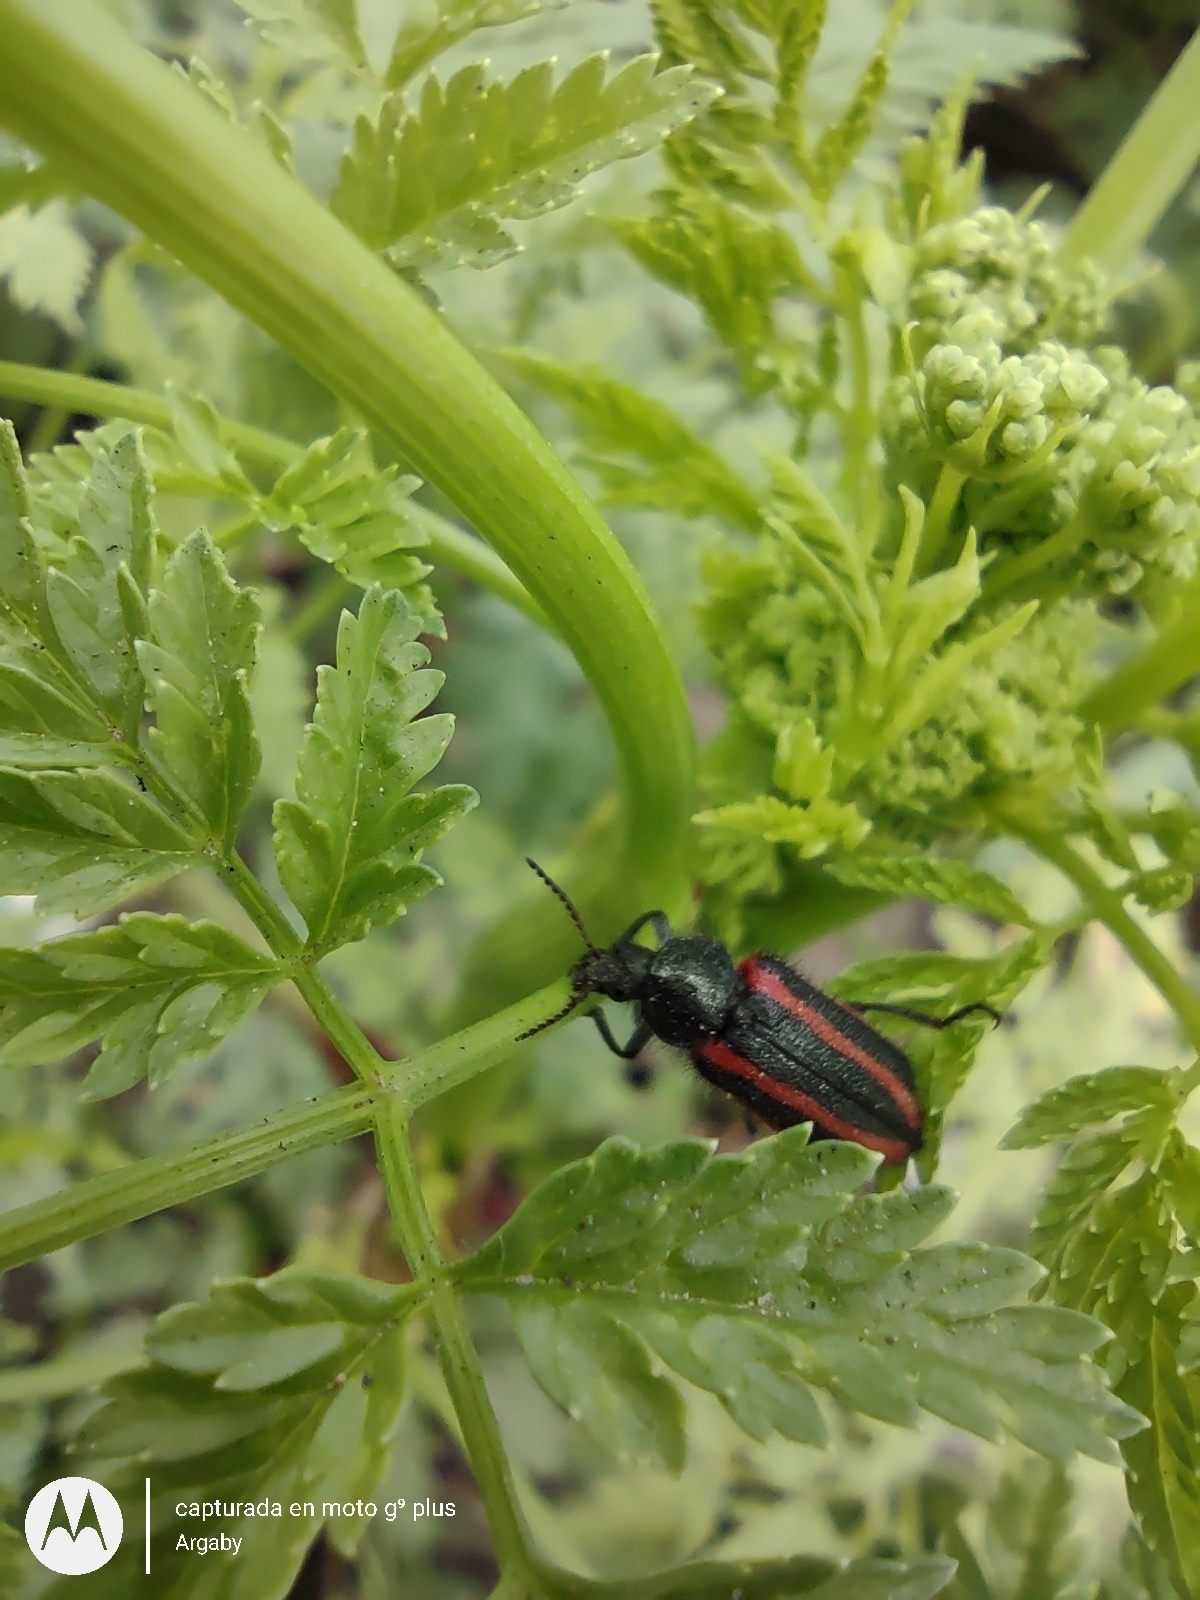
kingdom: Animalia
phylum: Arthropoda
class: Insecta
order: Coleoptera
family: Melyridae
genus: Astylus
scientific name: Astylus
